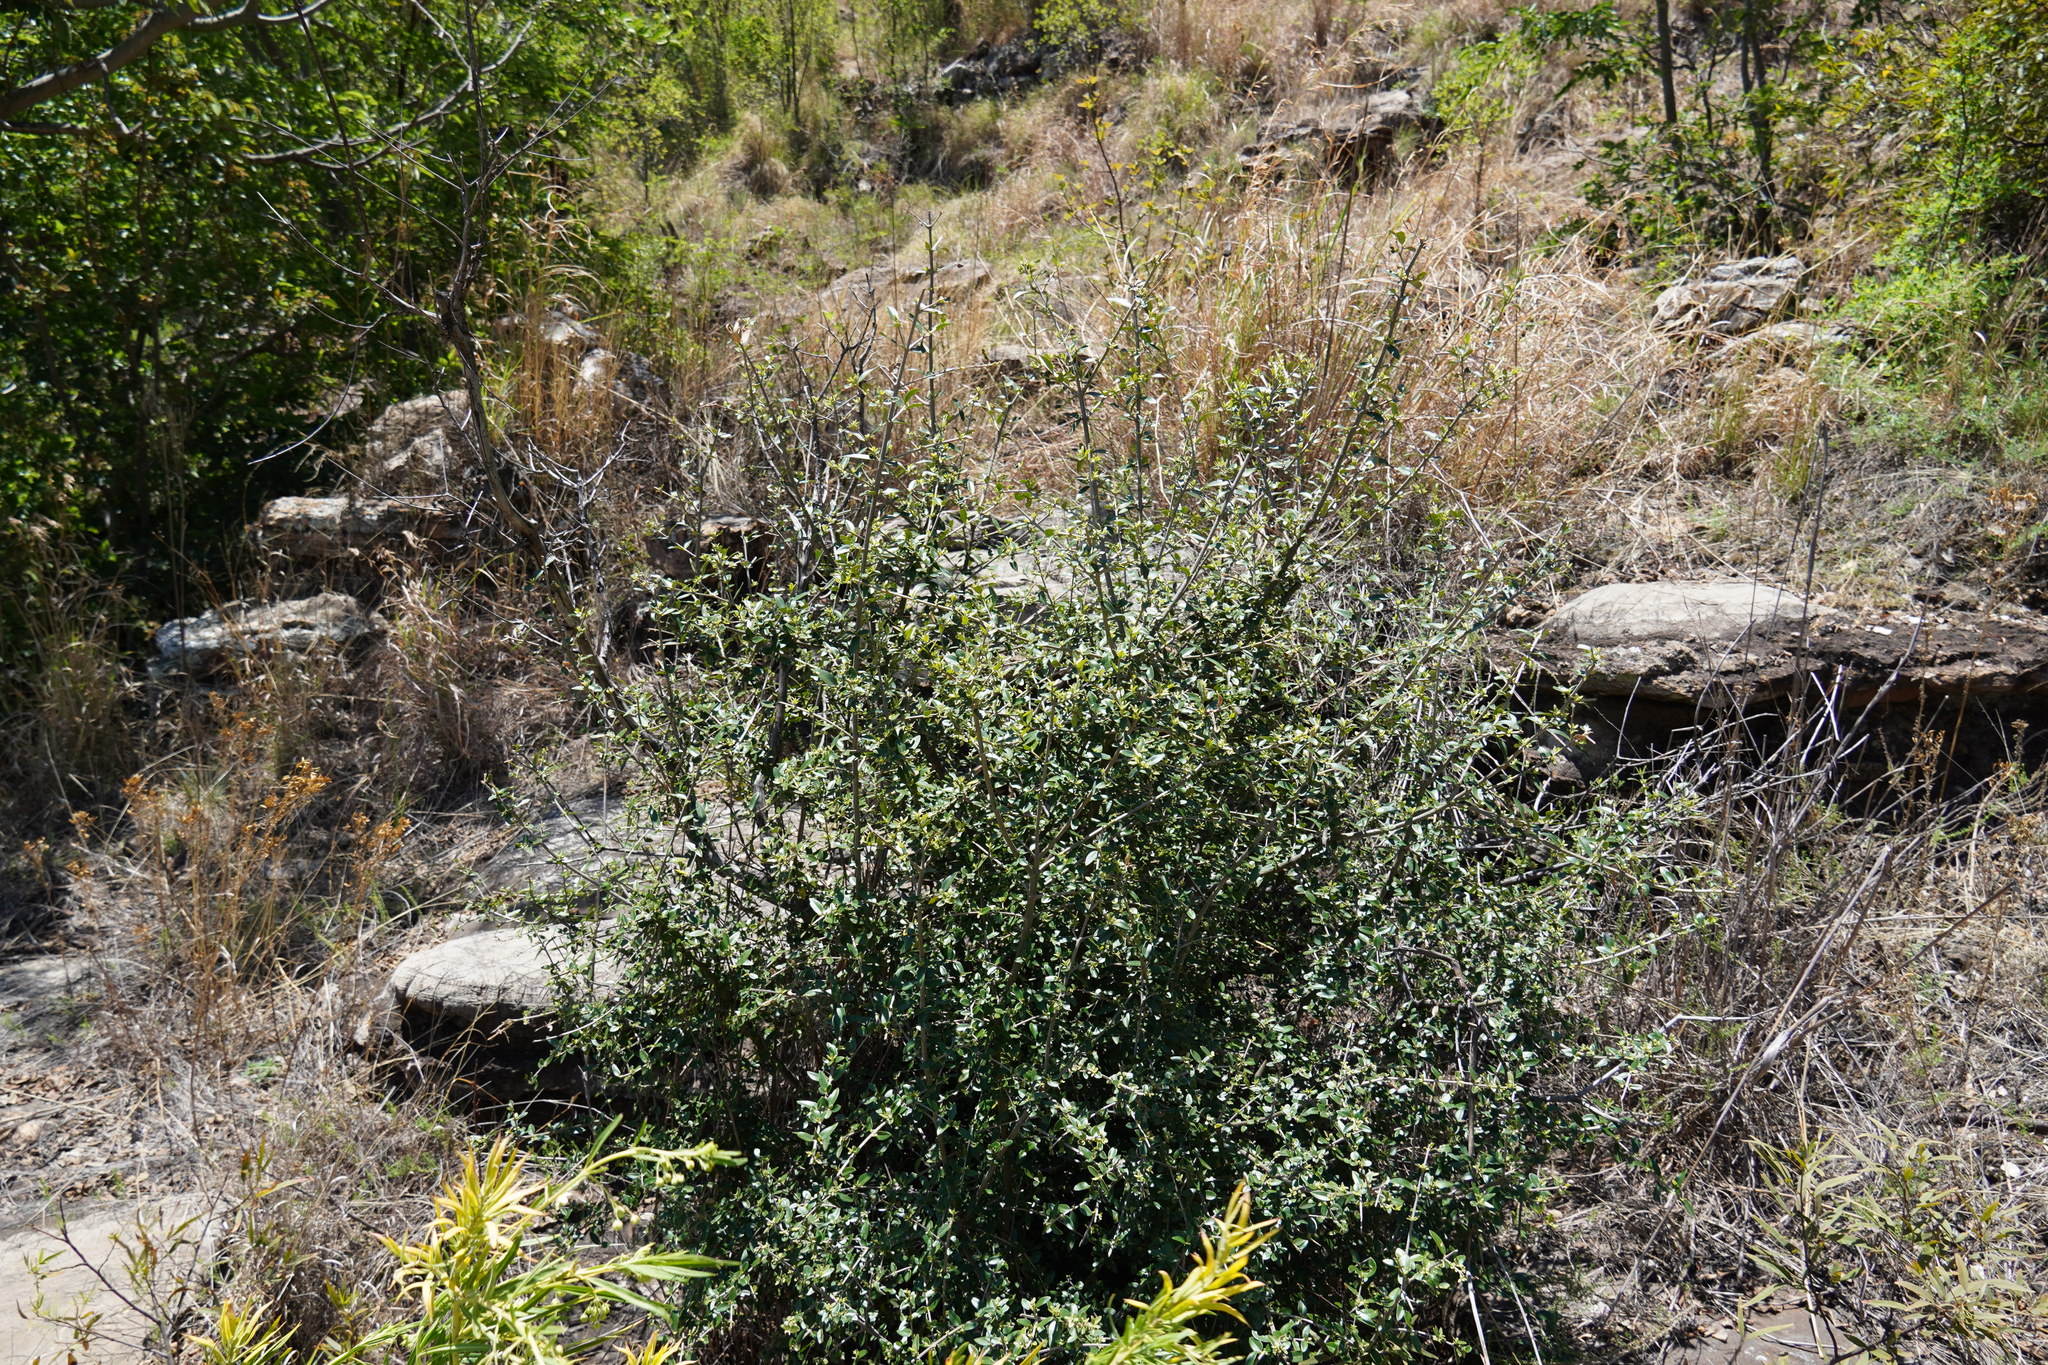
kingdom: Plantae
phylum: Tracheophyta
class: Magnoliopsida
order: Lamiales
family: Oleaceae
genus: Olea
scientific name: Olea europaea
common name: Olive
